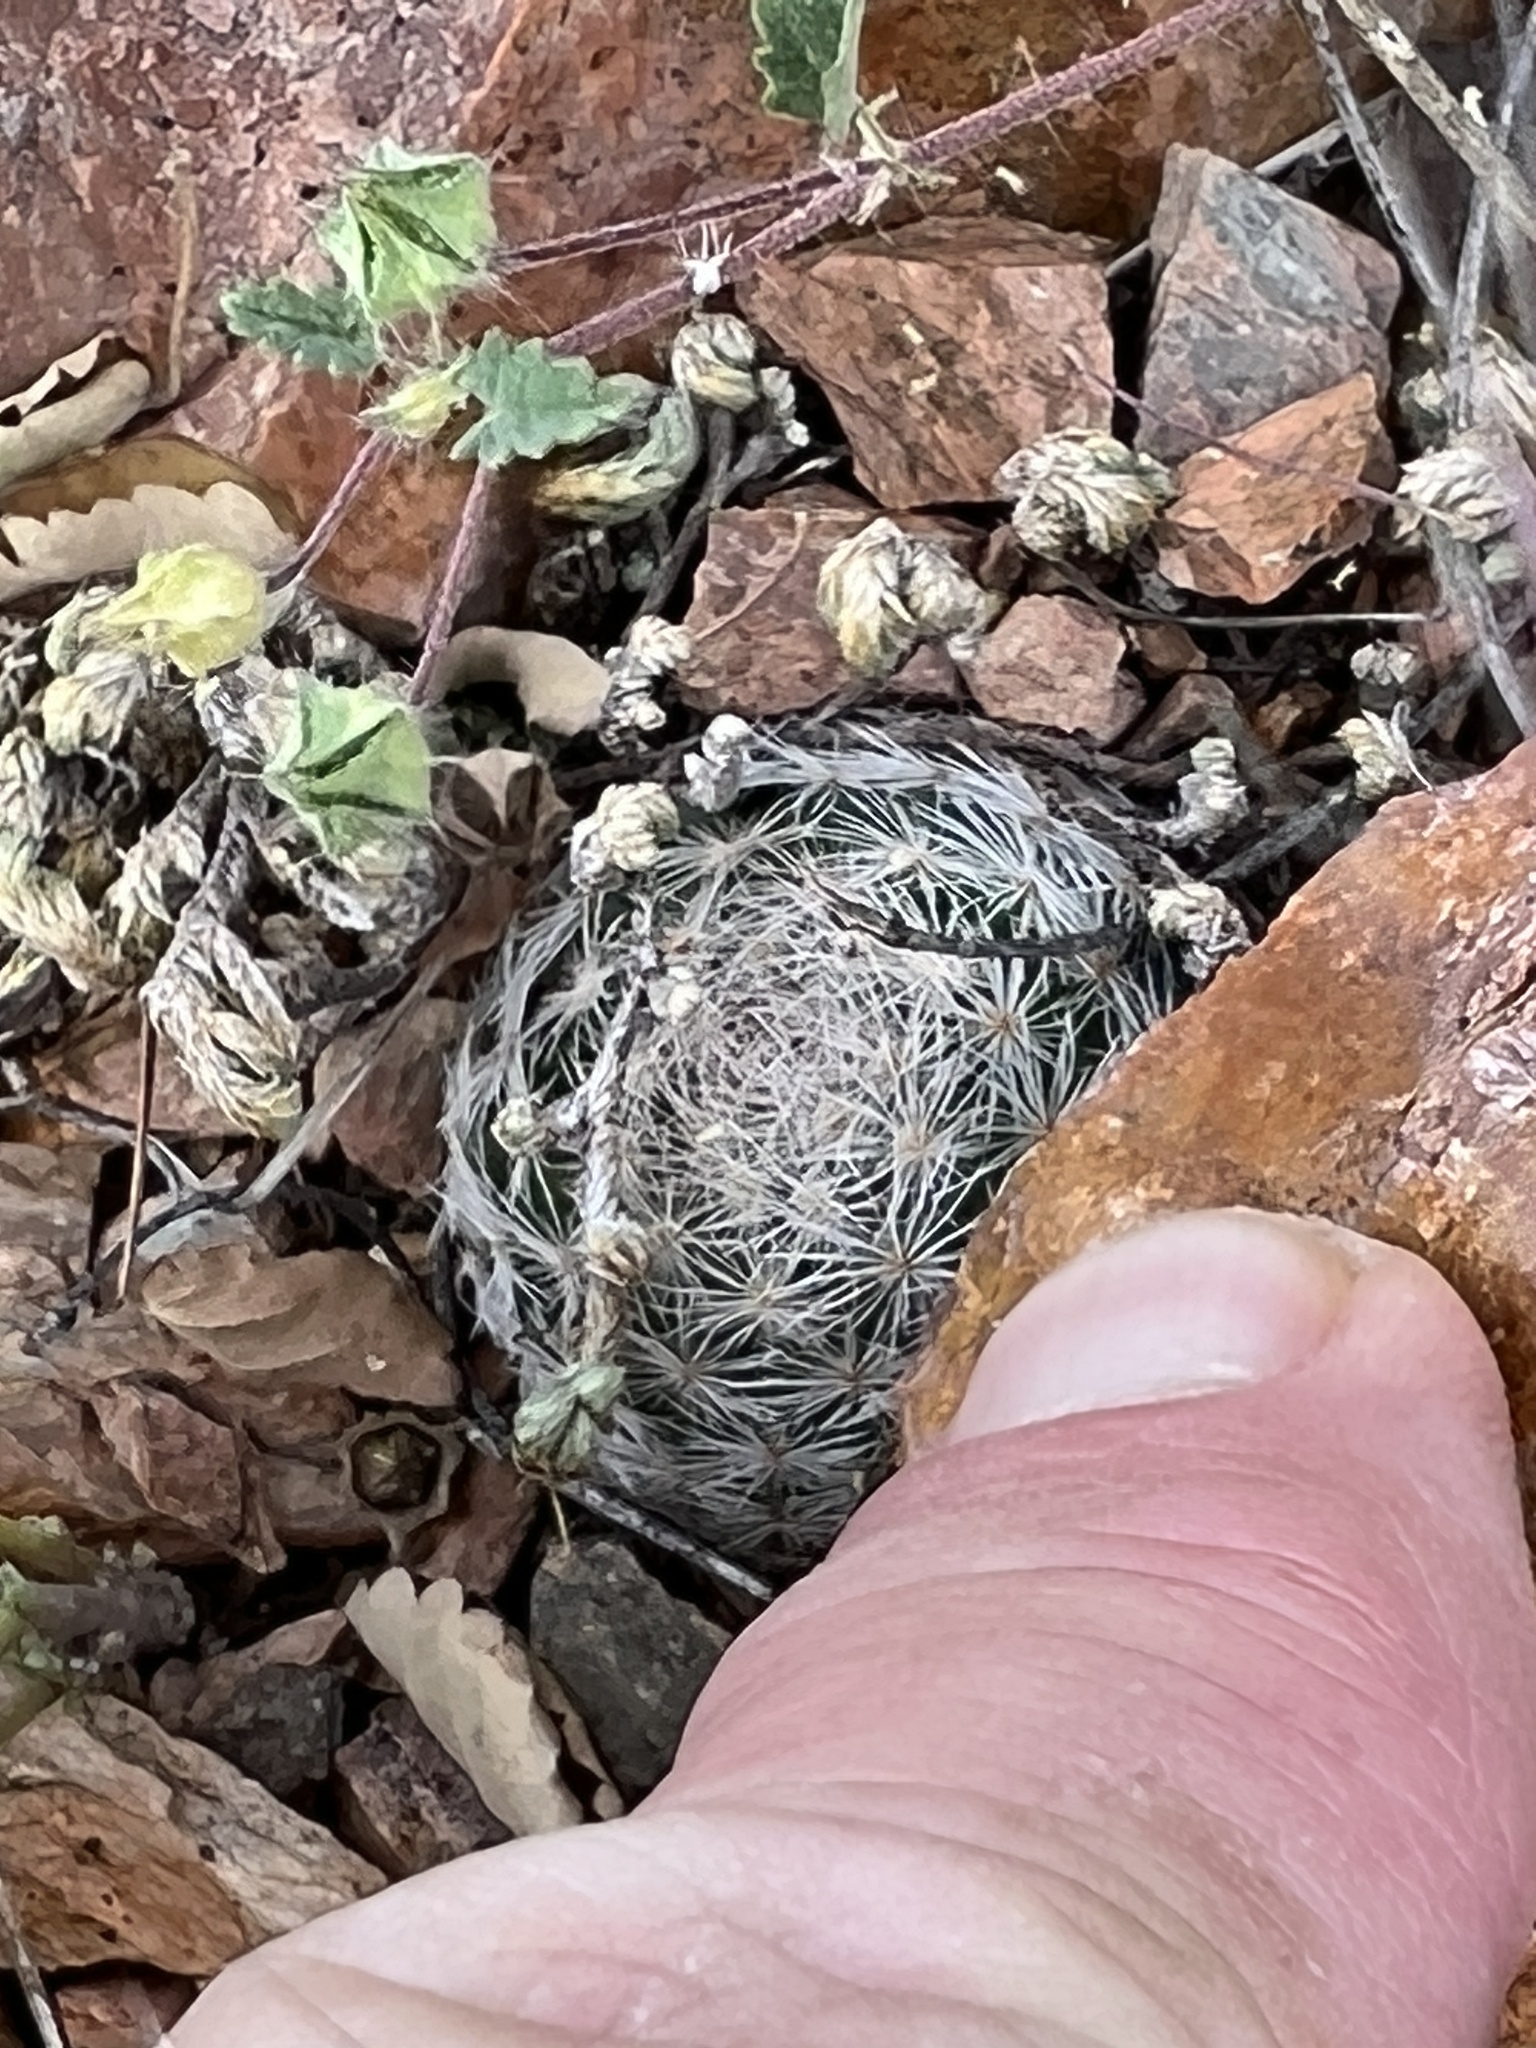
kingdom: Plantae
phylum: Tracheophyta
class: Magnoliopsida
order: Caryophyllales
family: Cactaceae
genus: Mammillaria
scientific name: Mammillaria lasiacantha
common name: Lace-spine nipple cactus
